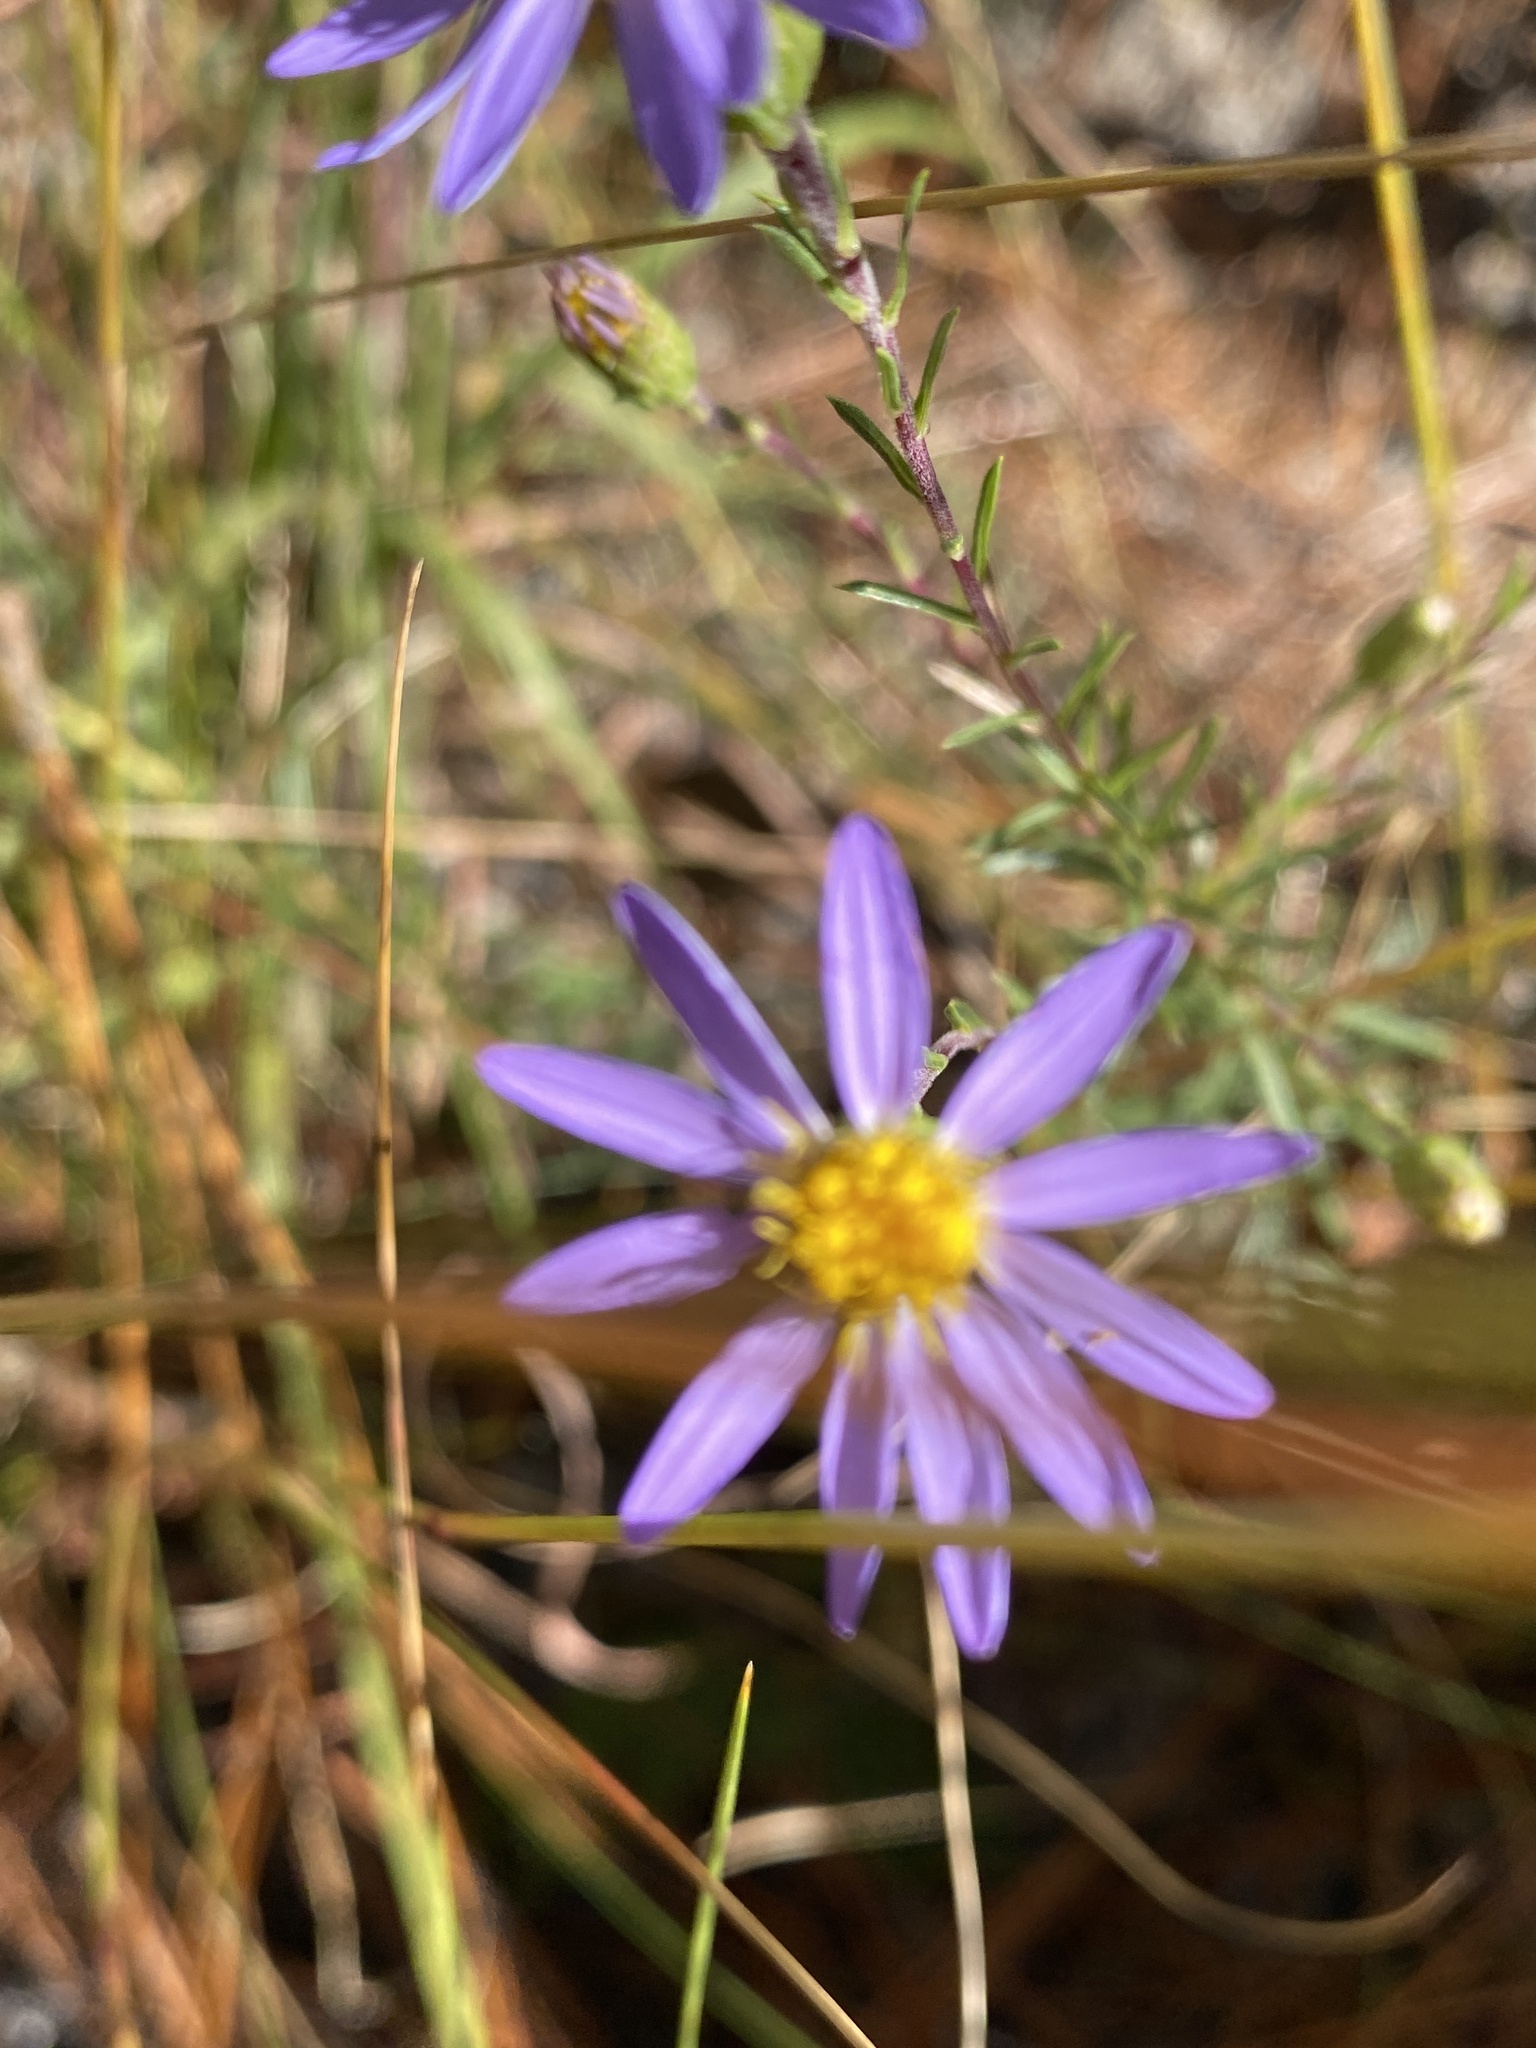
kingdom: Plantae
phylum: Tracheophyta
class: Magnoliopsida
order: Asterales
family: Asteraceae
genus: Ionactis
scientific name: Ionactis linariifolia
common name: Flax-leaf aster
